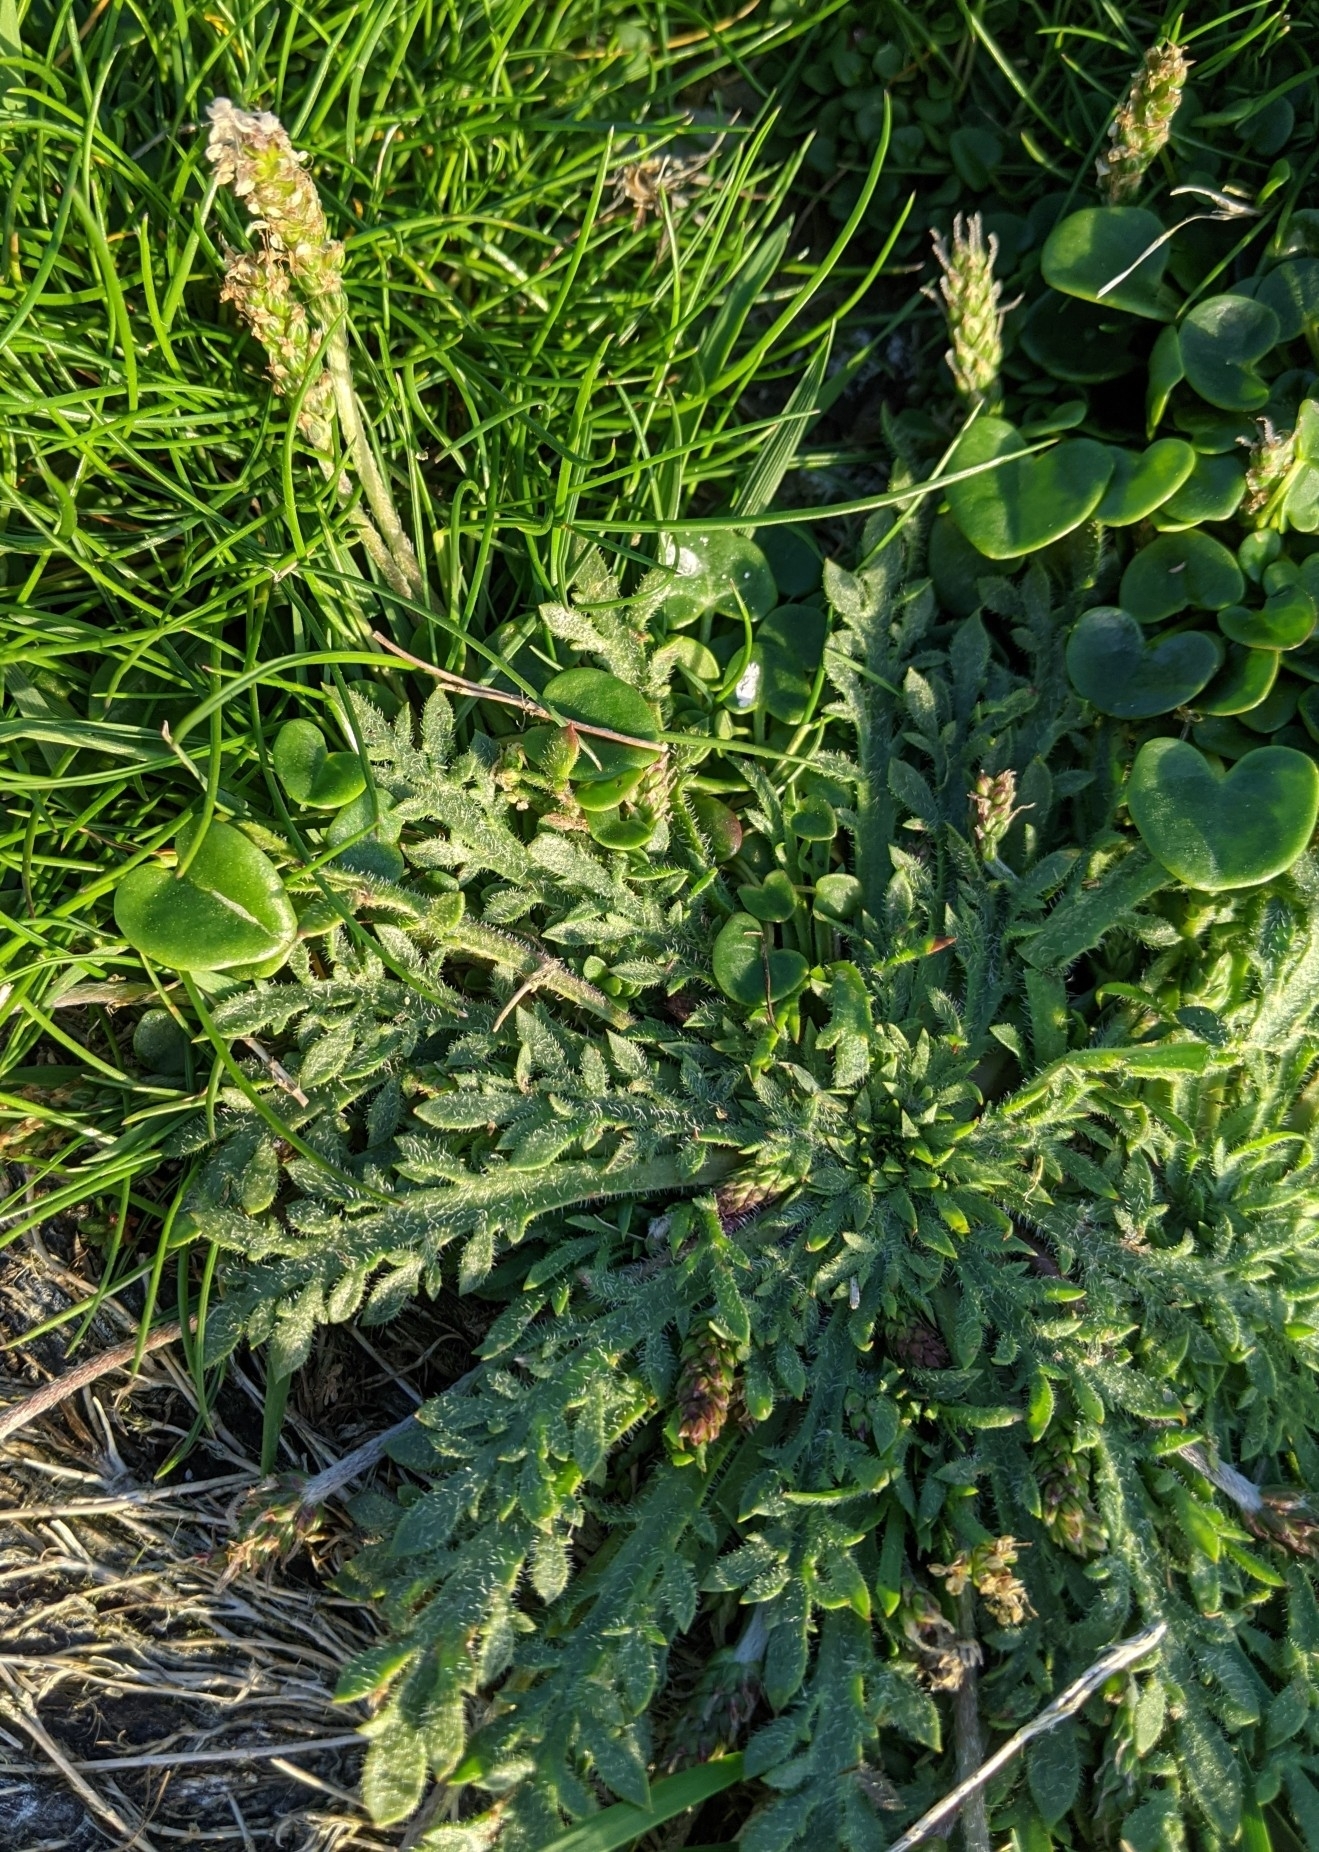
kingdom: Plantae
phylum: Tracheophyta
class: Magnoliopsida
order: Lamiales
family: Plantaginaceae
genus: Plantago
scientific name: Plantago coronopus
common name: Buck's-horn plantain
